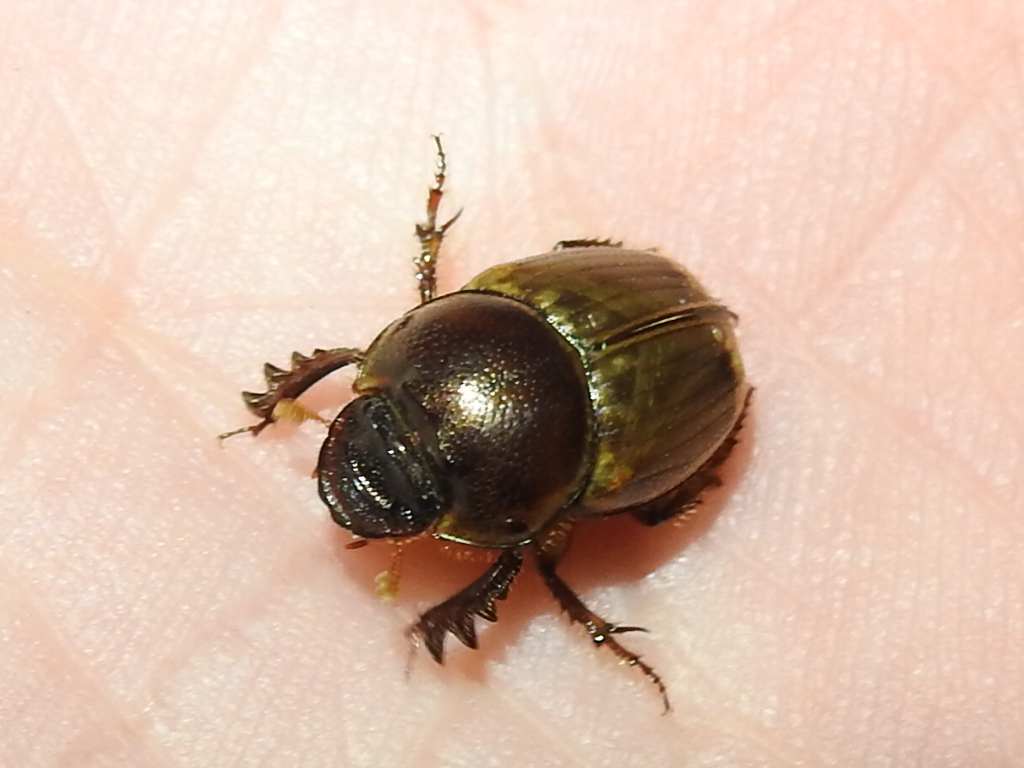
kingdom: Animalia
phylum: Arthropoda
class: Insecta
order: Coleoptera
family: Scarabaeidae
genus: Digitonthophagus
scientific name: Digitonthophagus gazella
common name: Brown dung beetle
